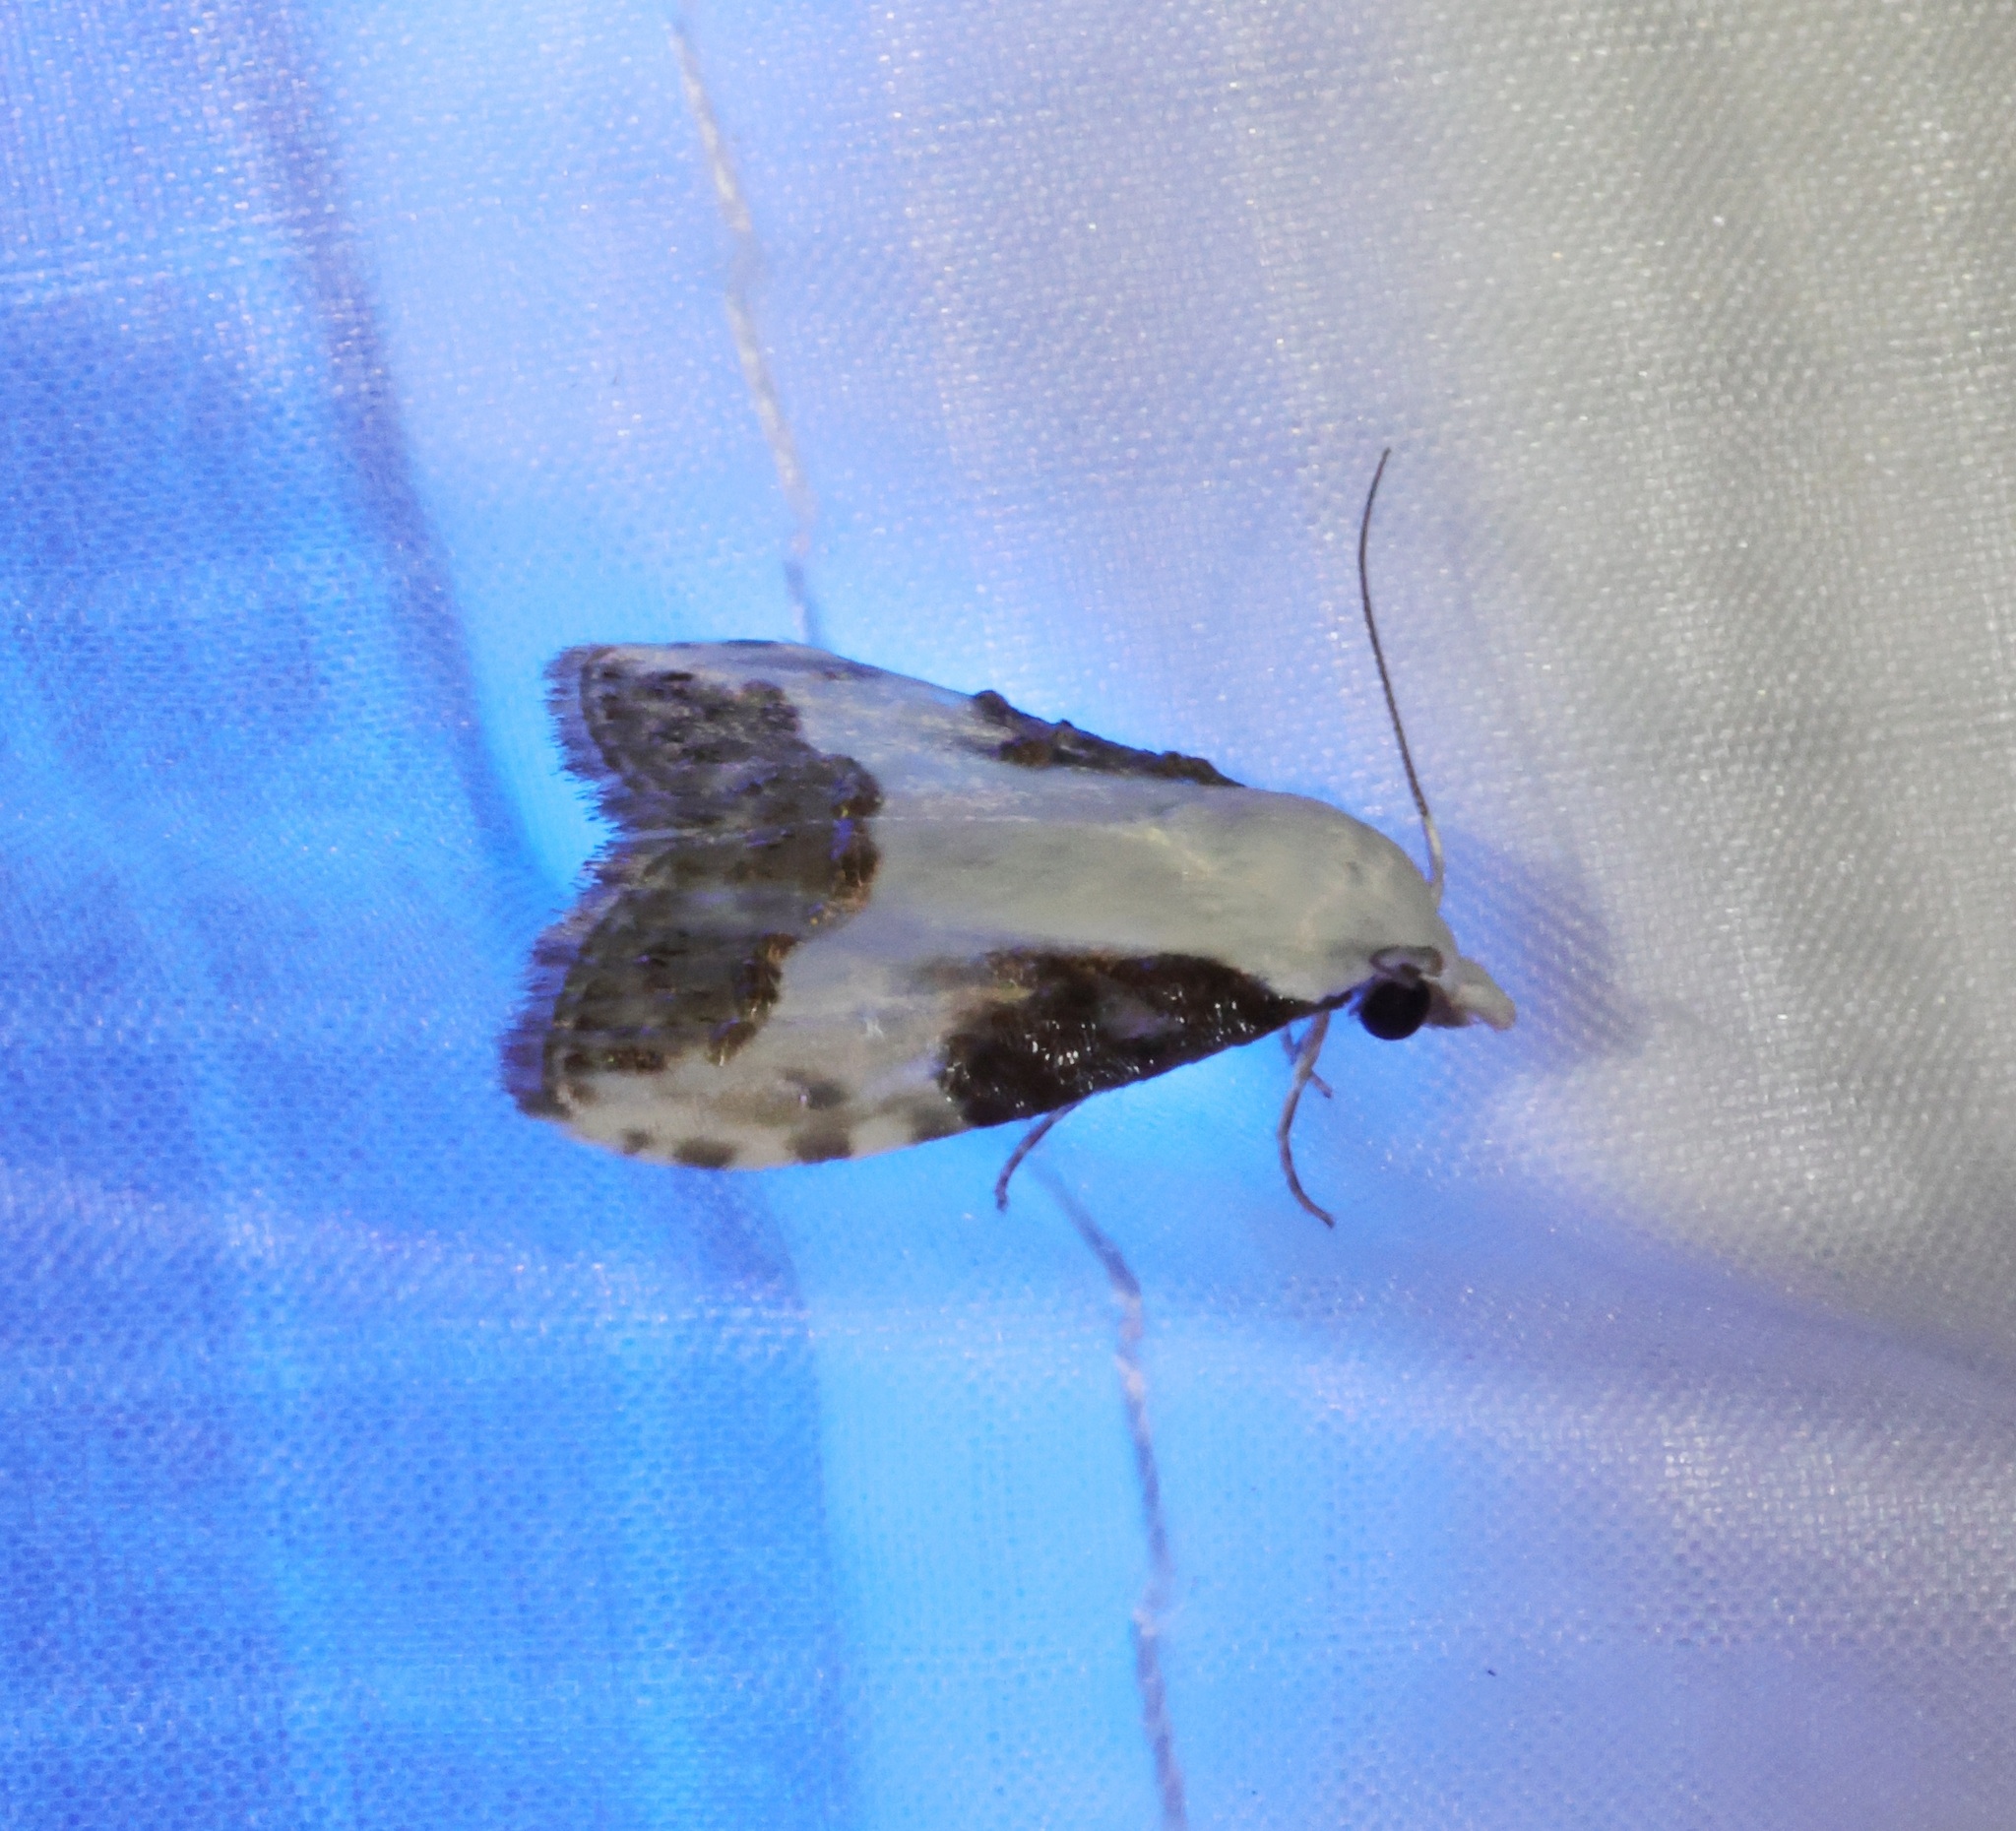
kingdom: Animalia
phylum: Arthropoda
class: Insecta
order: Lepidoptera
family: Nolidae
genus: Aeneanola
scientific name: Aeneanola acontioides
